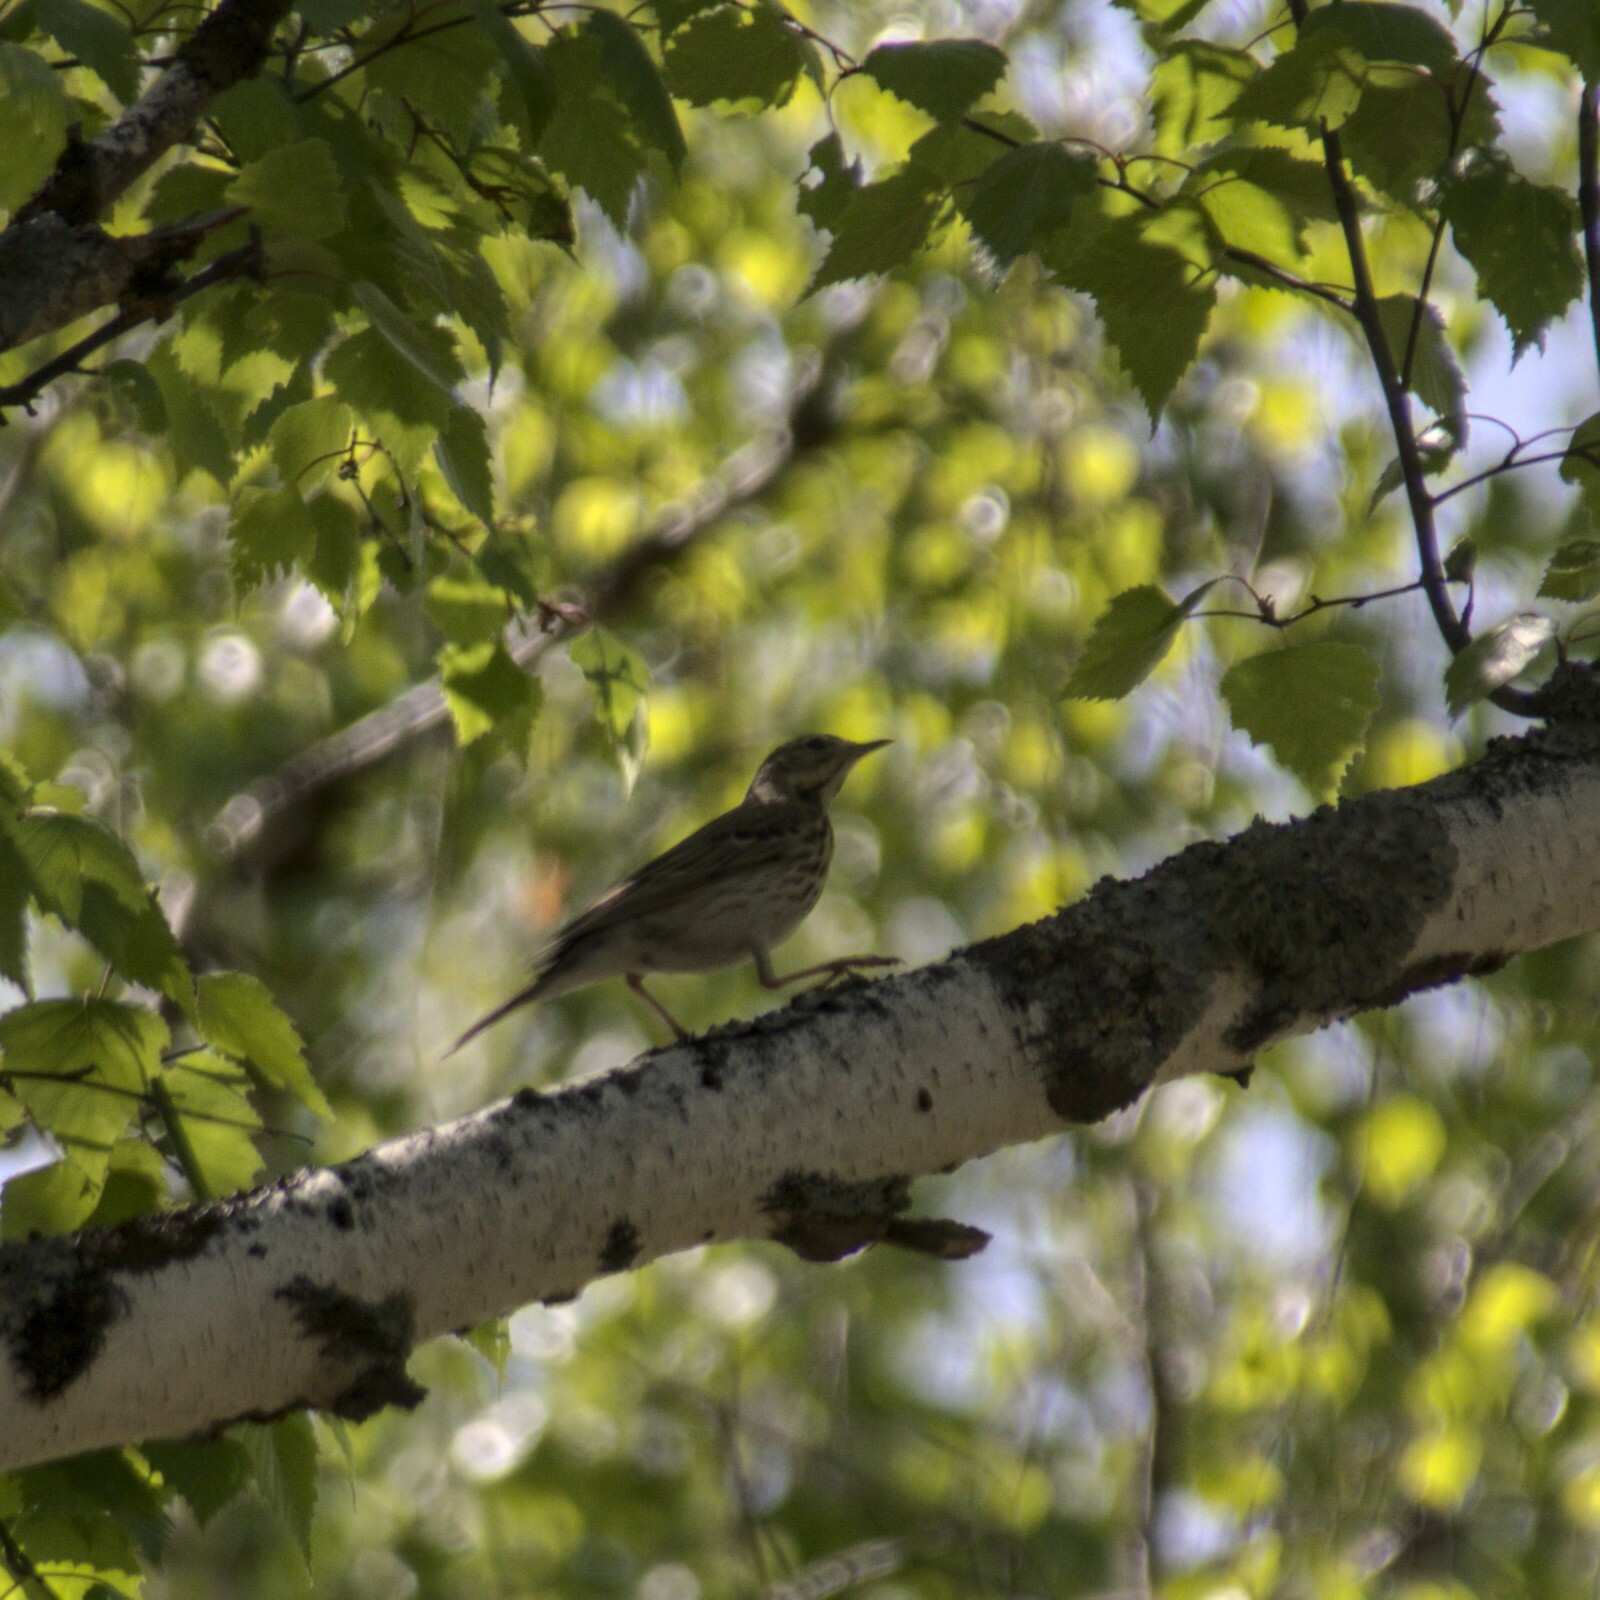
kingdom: Animalia
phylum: Chordata
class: Aves
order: Passeriformes
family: Motacillidae
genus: Anthus
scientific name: Anthus trivialis
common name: Tree pipit
